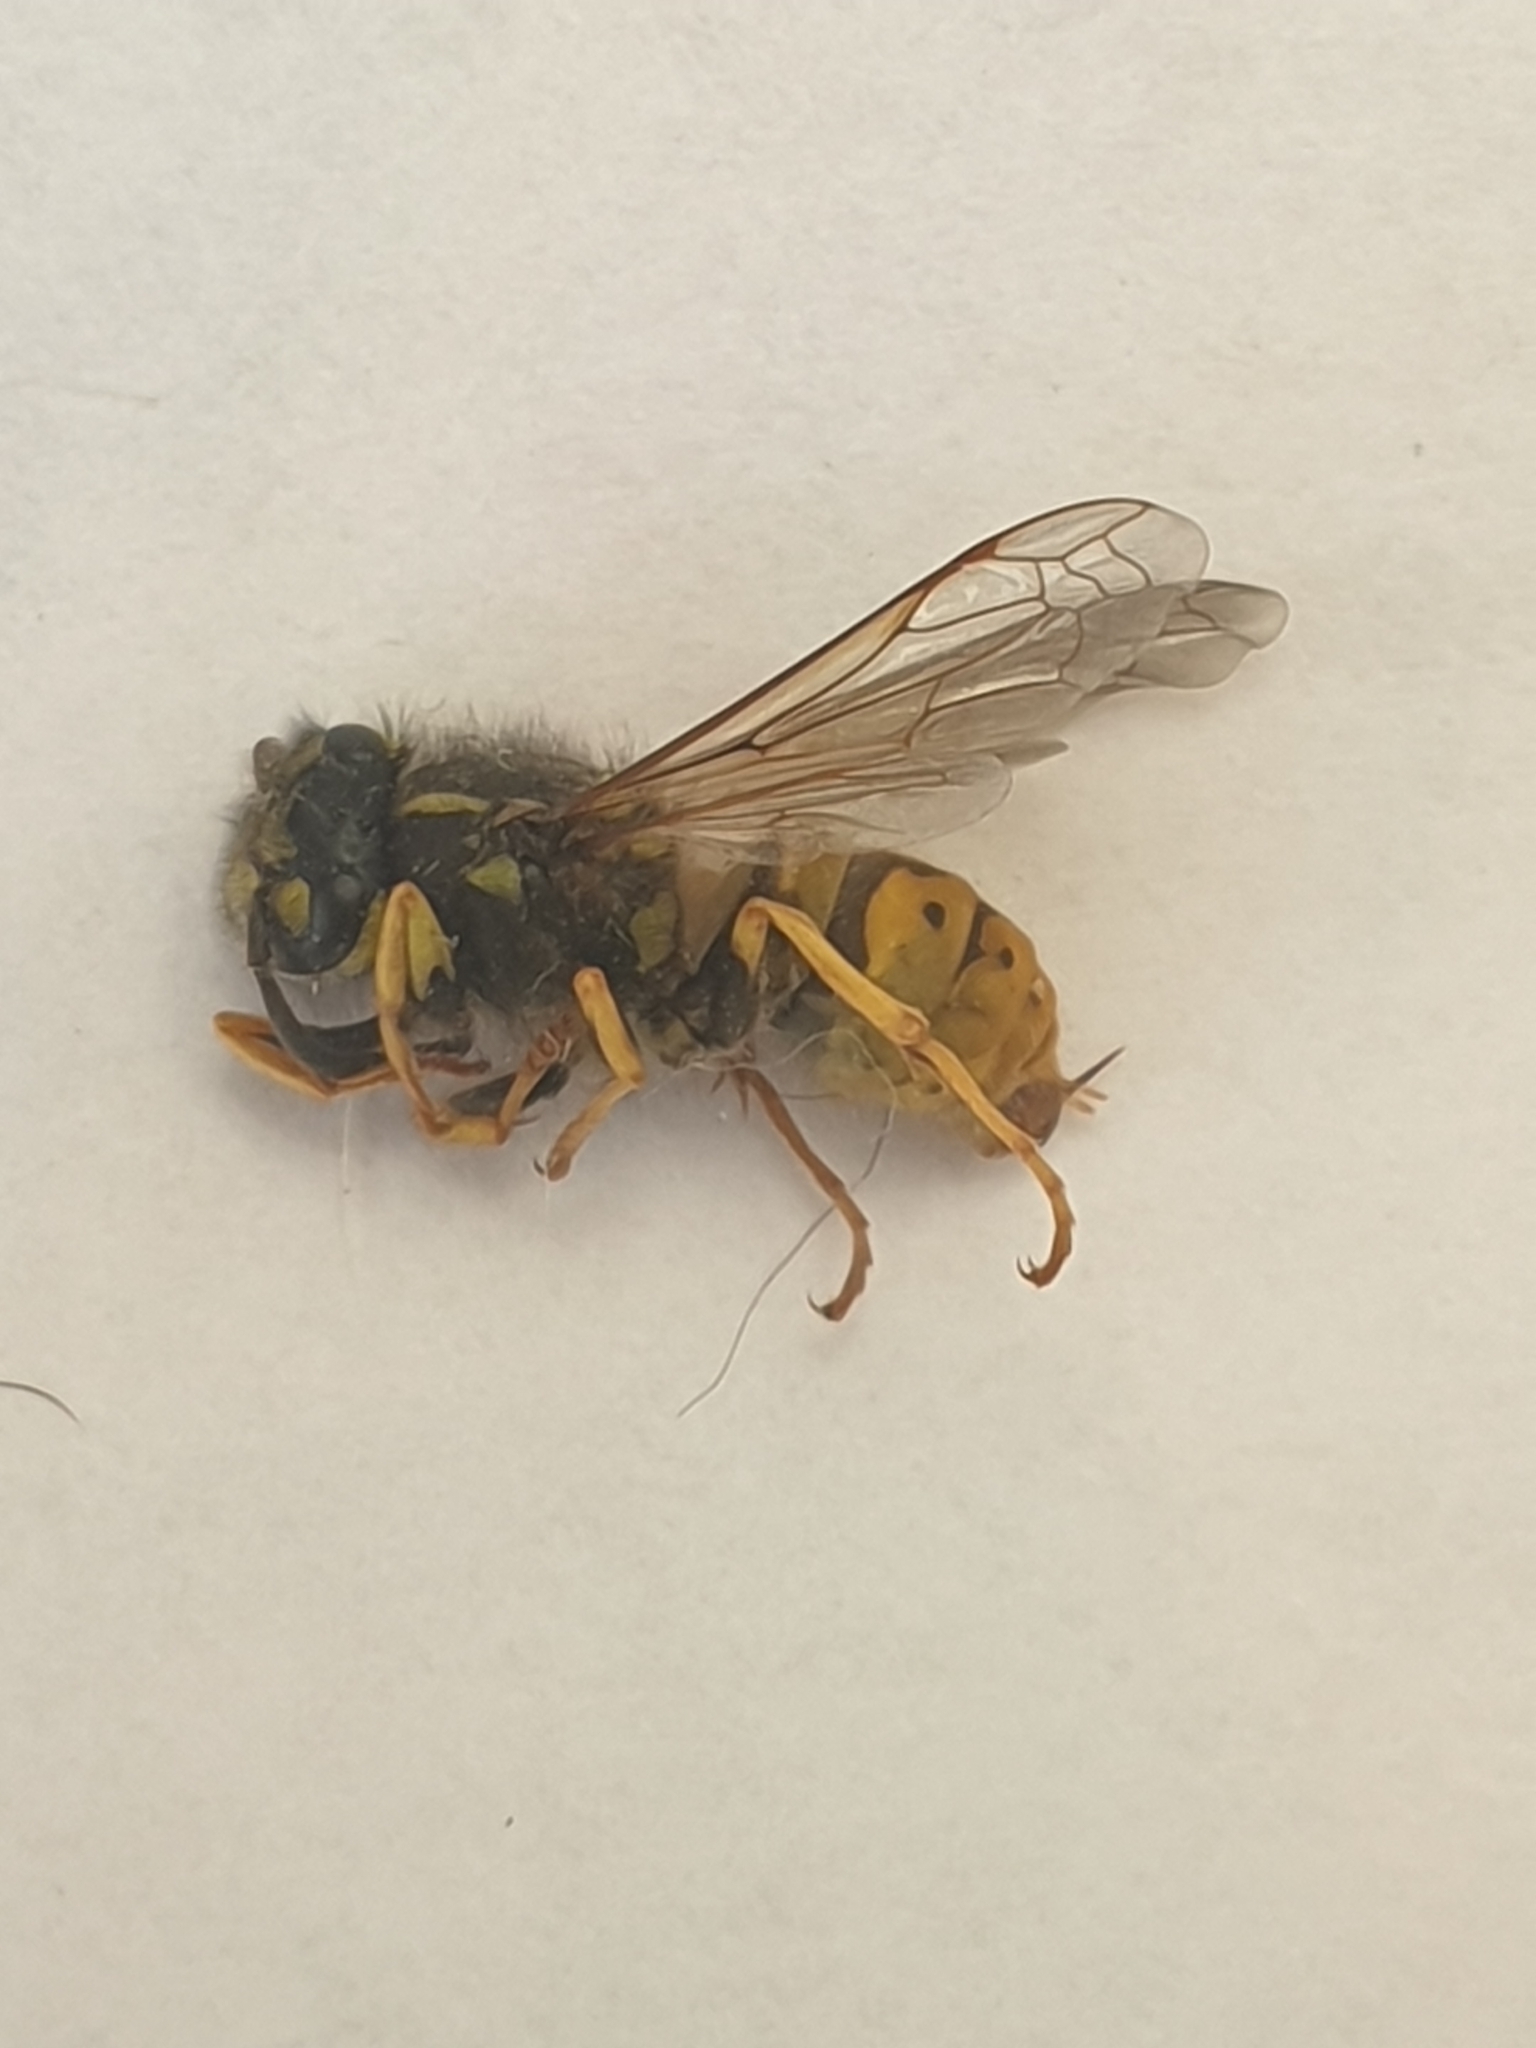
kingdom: Animalia
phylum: Arthropoda
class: Insecta
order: Hymenoptera
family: Vespidae
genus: Vespula
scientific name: Vespula germanica
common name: German wasp
